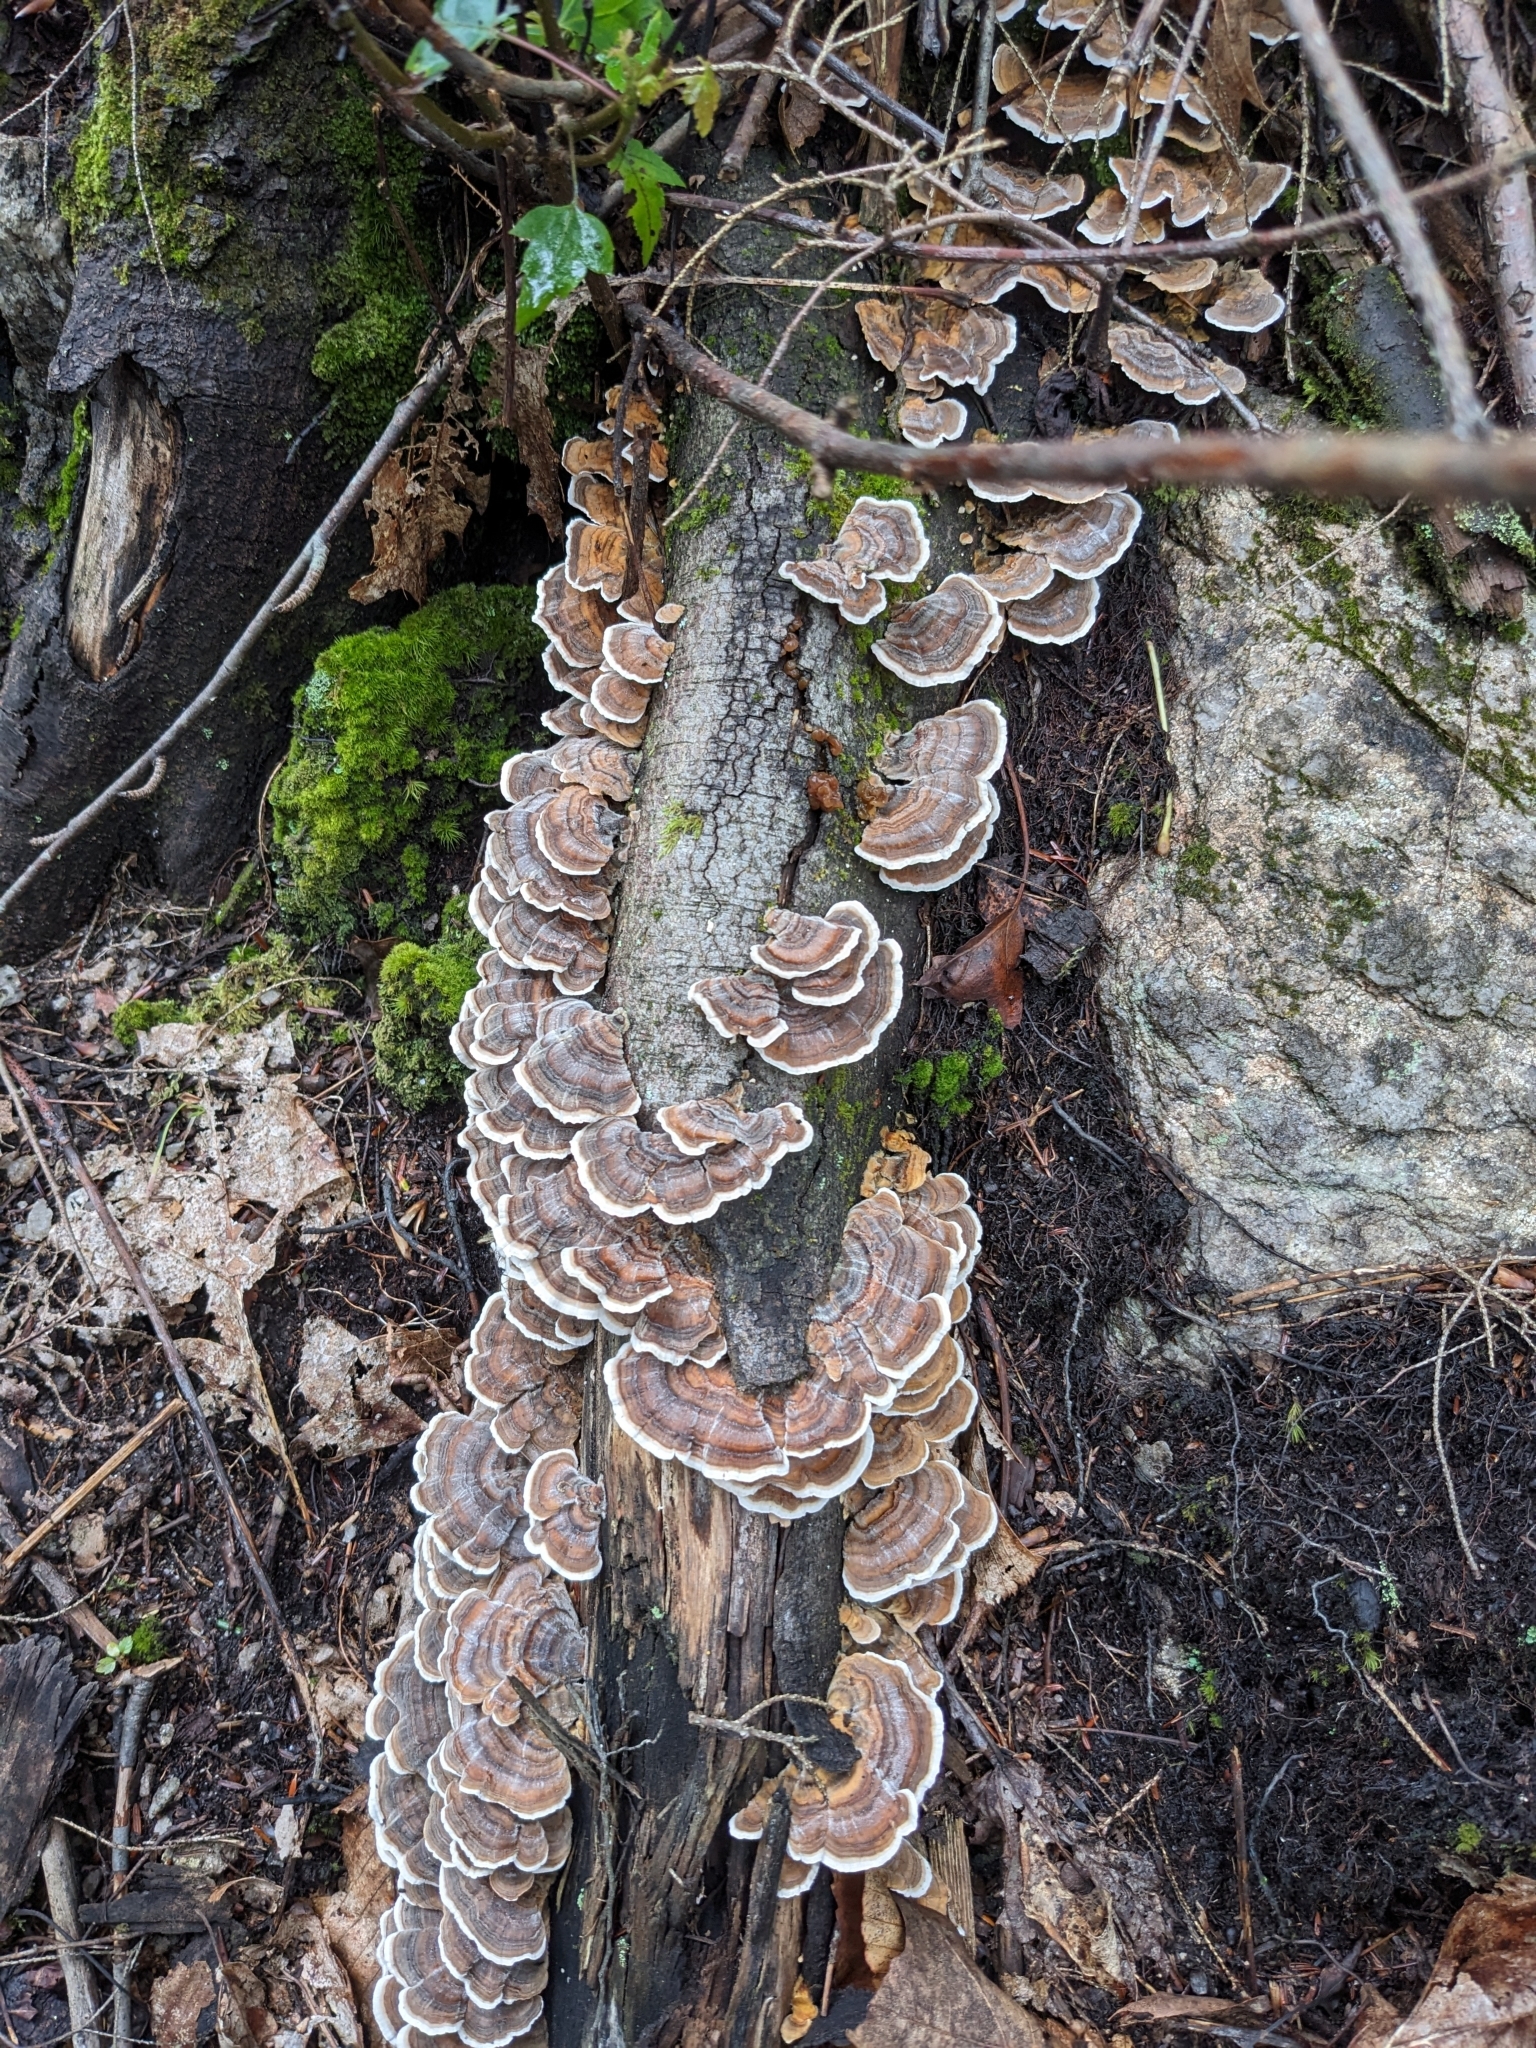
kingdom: Fungi
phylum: Basidiomycota
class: Agaricomycetes
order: Polyporales
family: Polyporaceae
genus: Trametes
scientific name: Trametes versicolor
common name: Turkeytail
